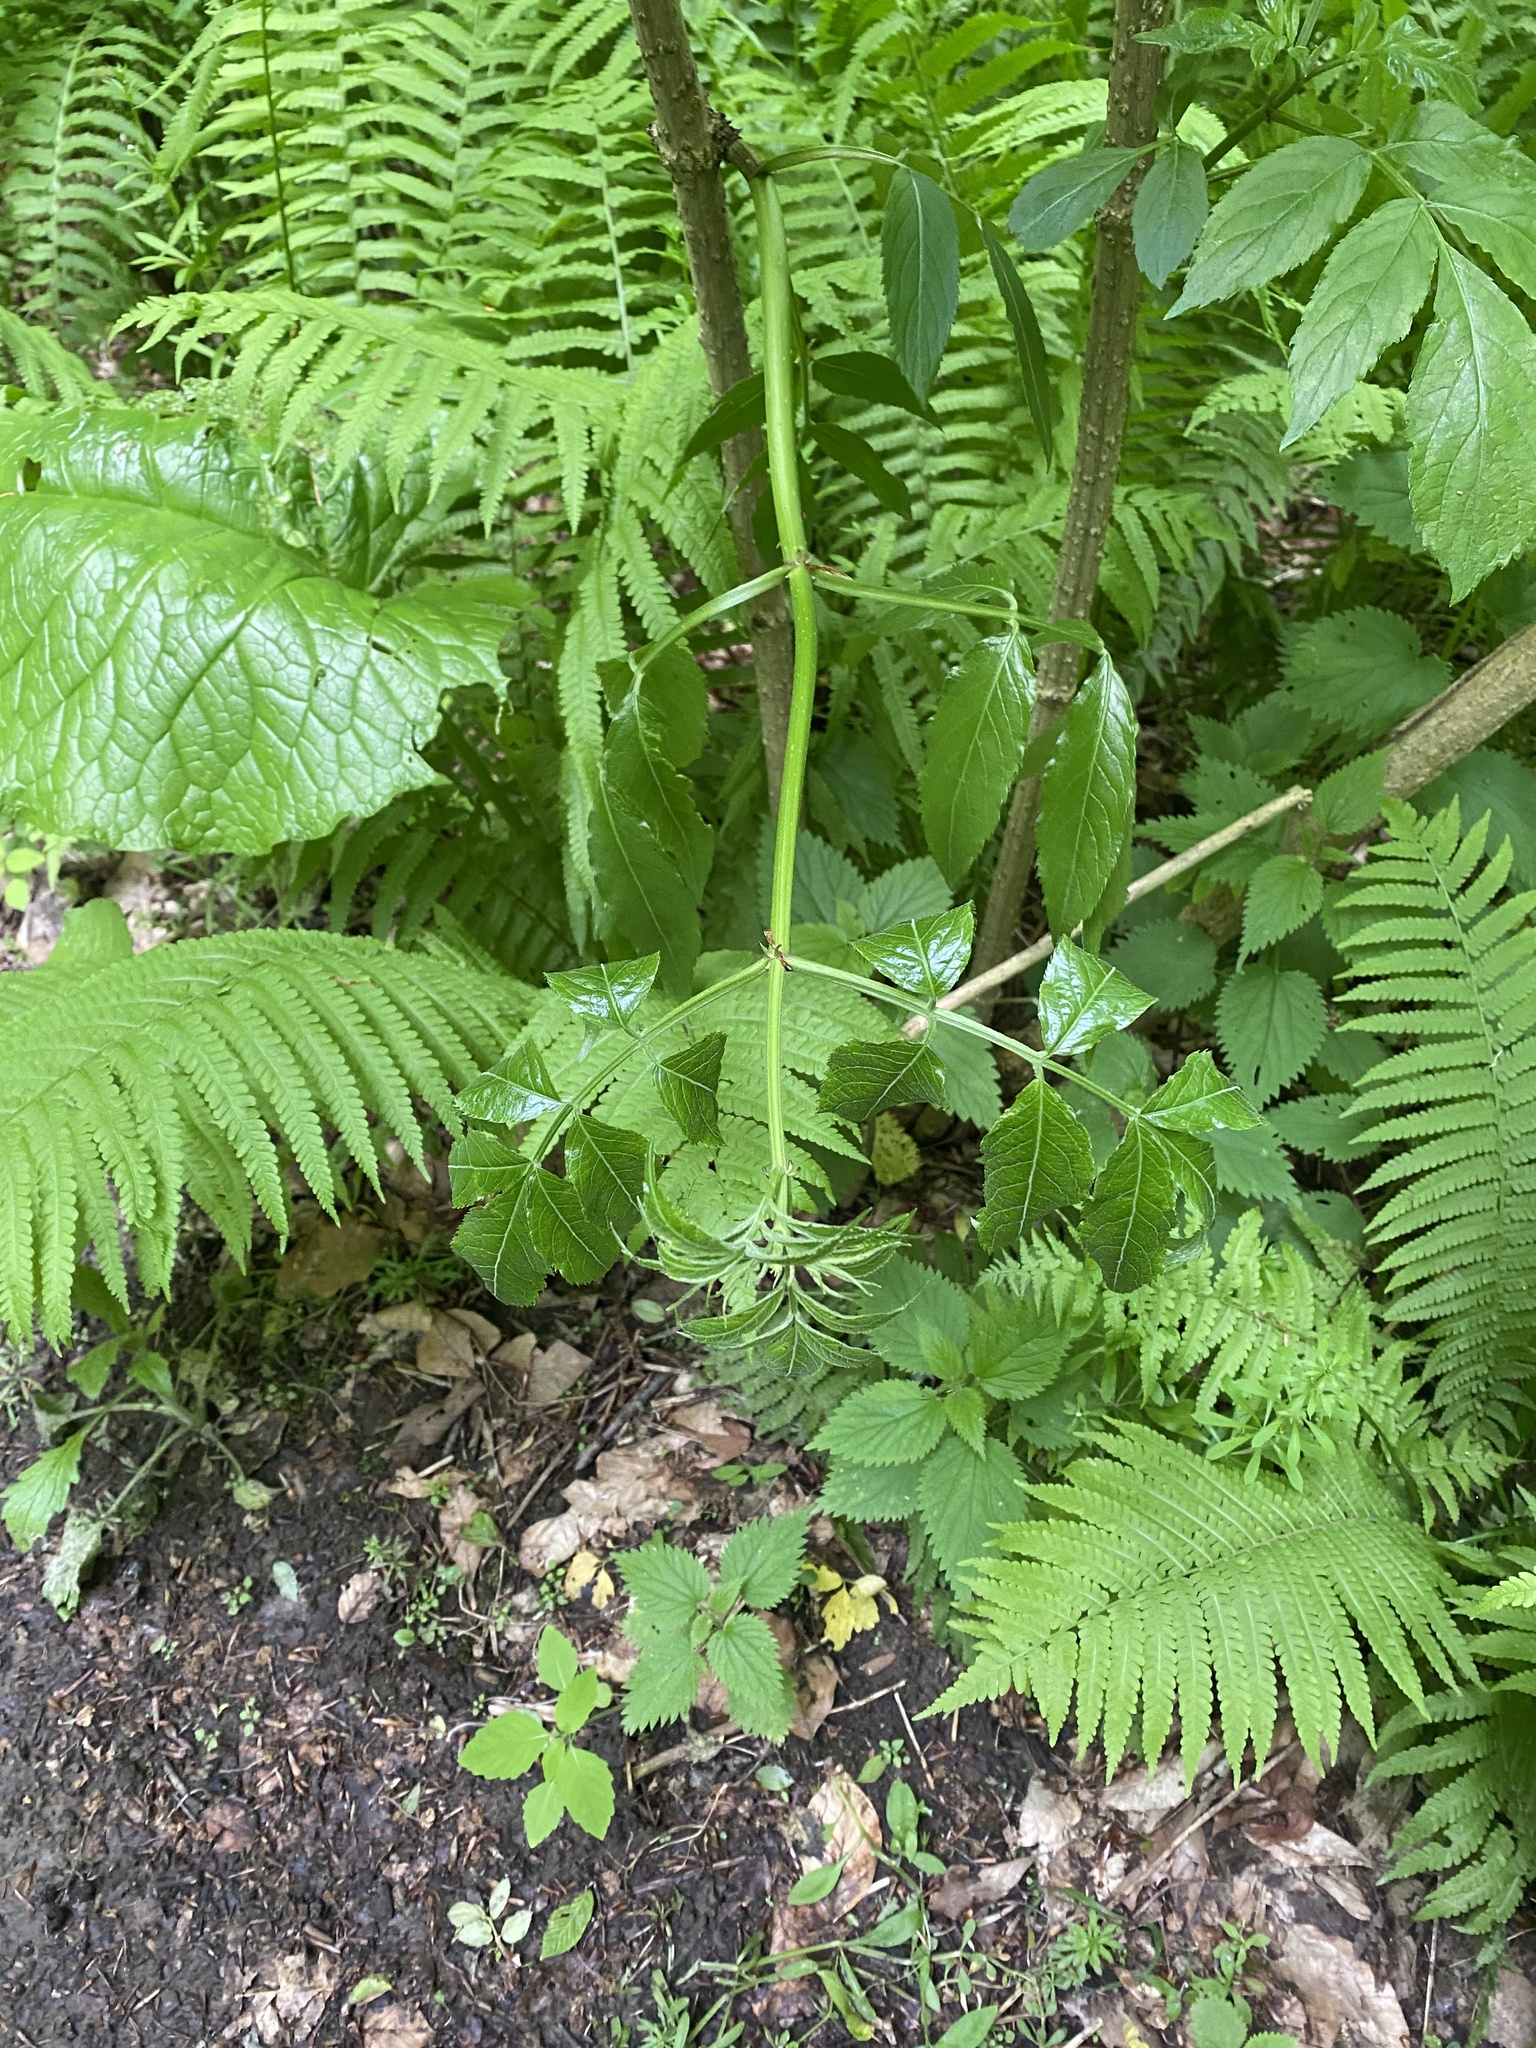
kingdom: Plantae
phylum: Tracheophyta
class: Magnoliopsida
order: Dipsacales
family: Viburnaceae
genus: Sambucus
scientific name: Sambucus nigra
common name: Elder
